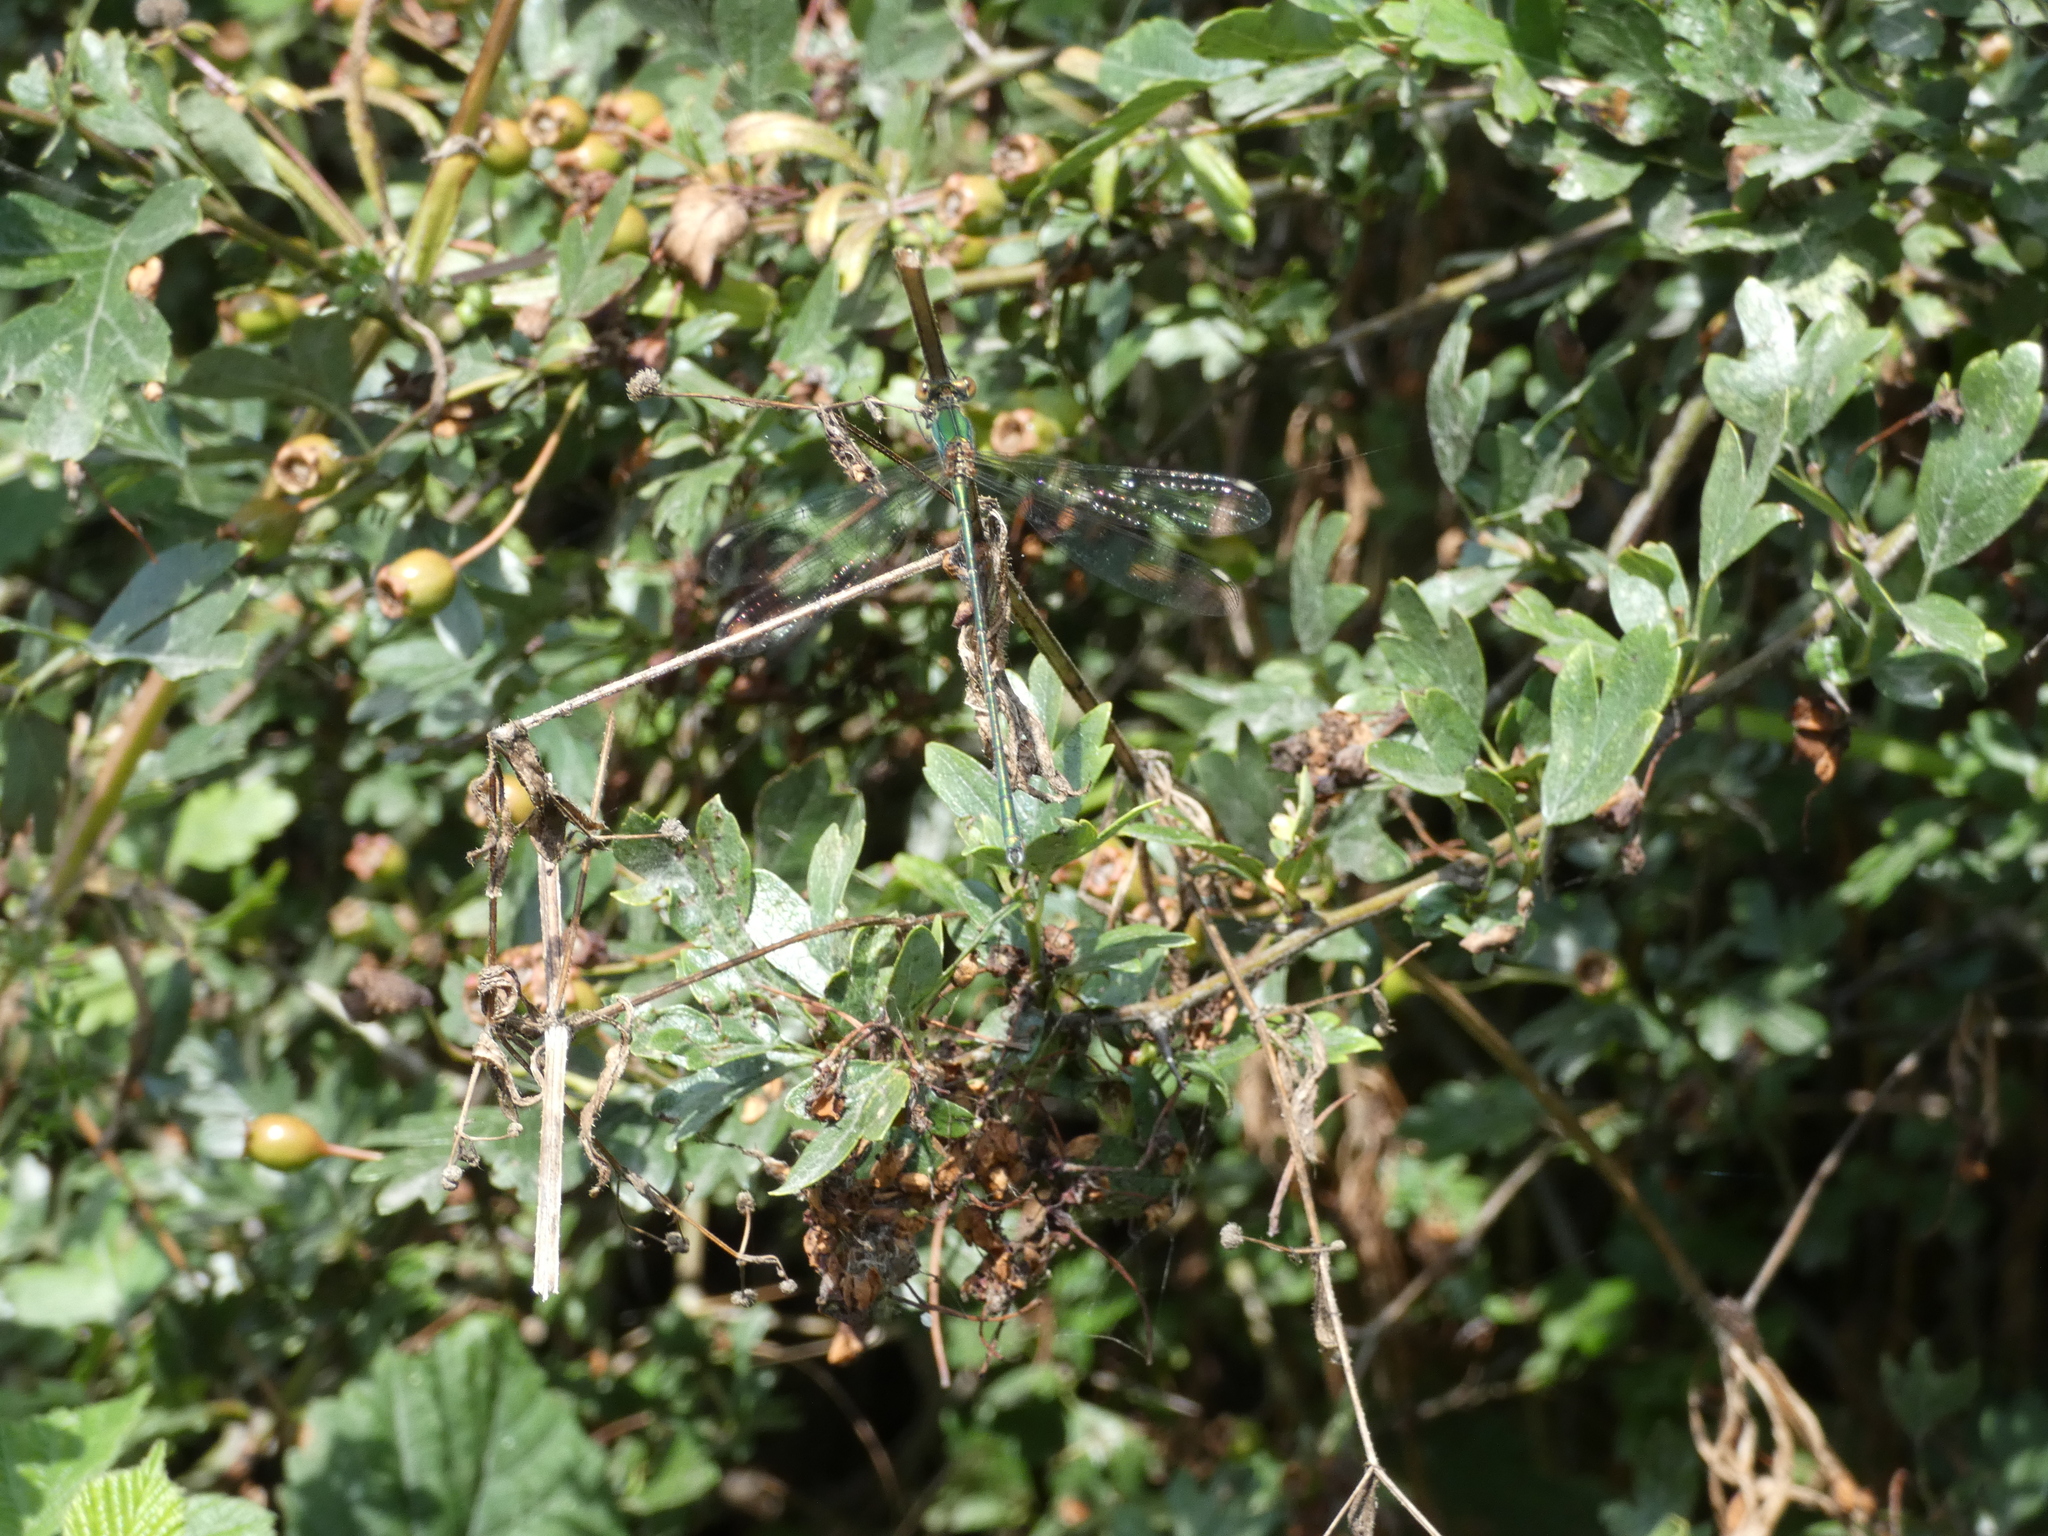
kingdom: Animalia
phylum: Arthropoda
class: Insecta
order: Odonata
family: Lestidae
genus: Chalcolestes
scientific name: Chalcolestes viridis
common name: Green emerald damselfly
